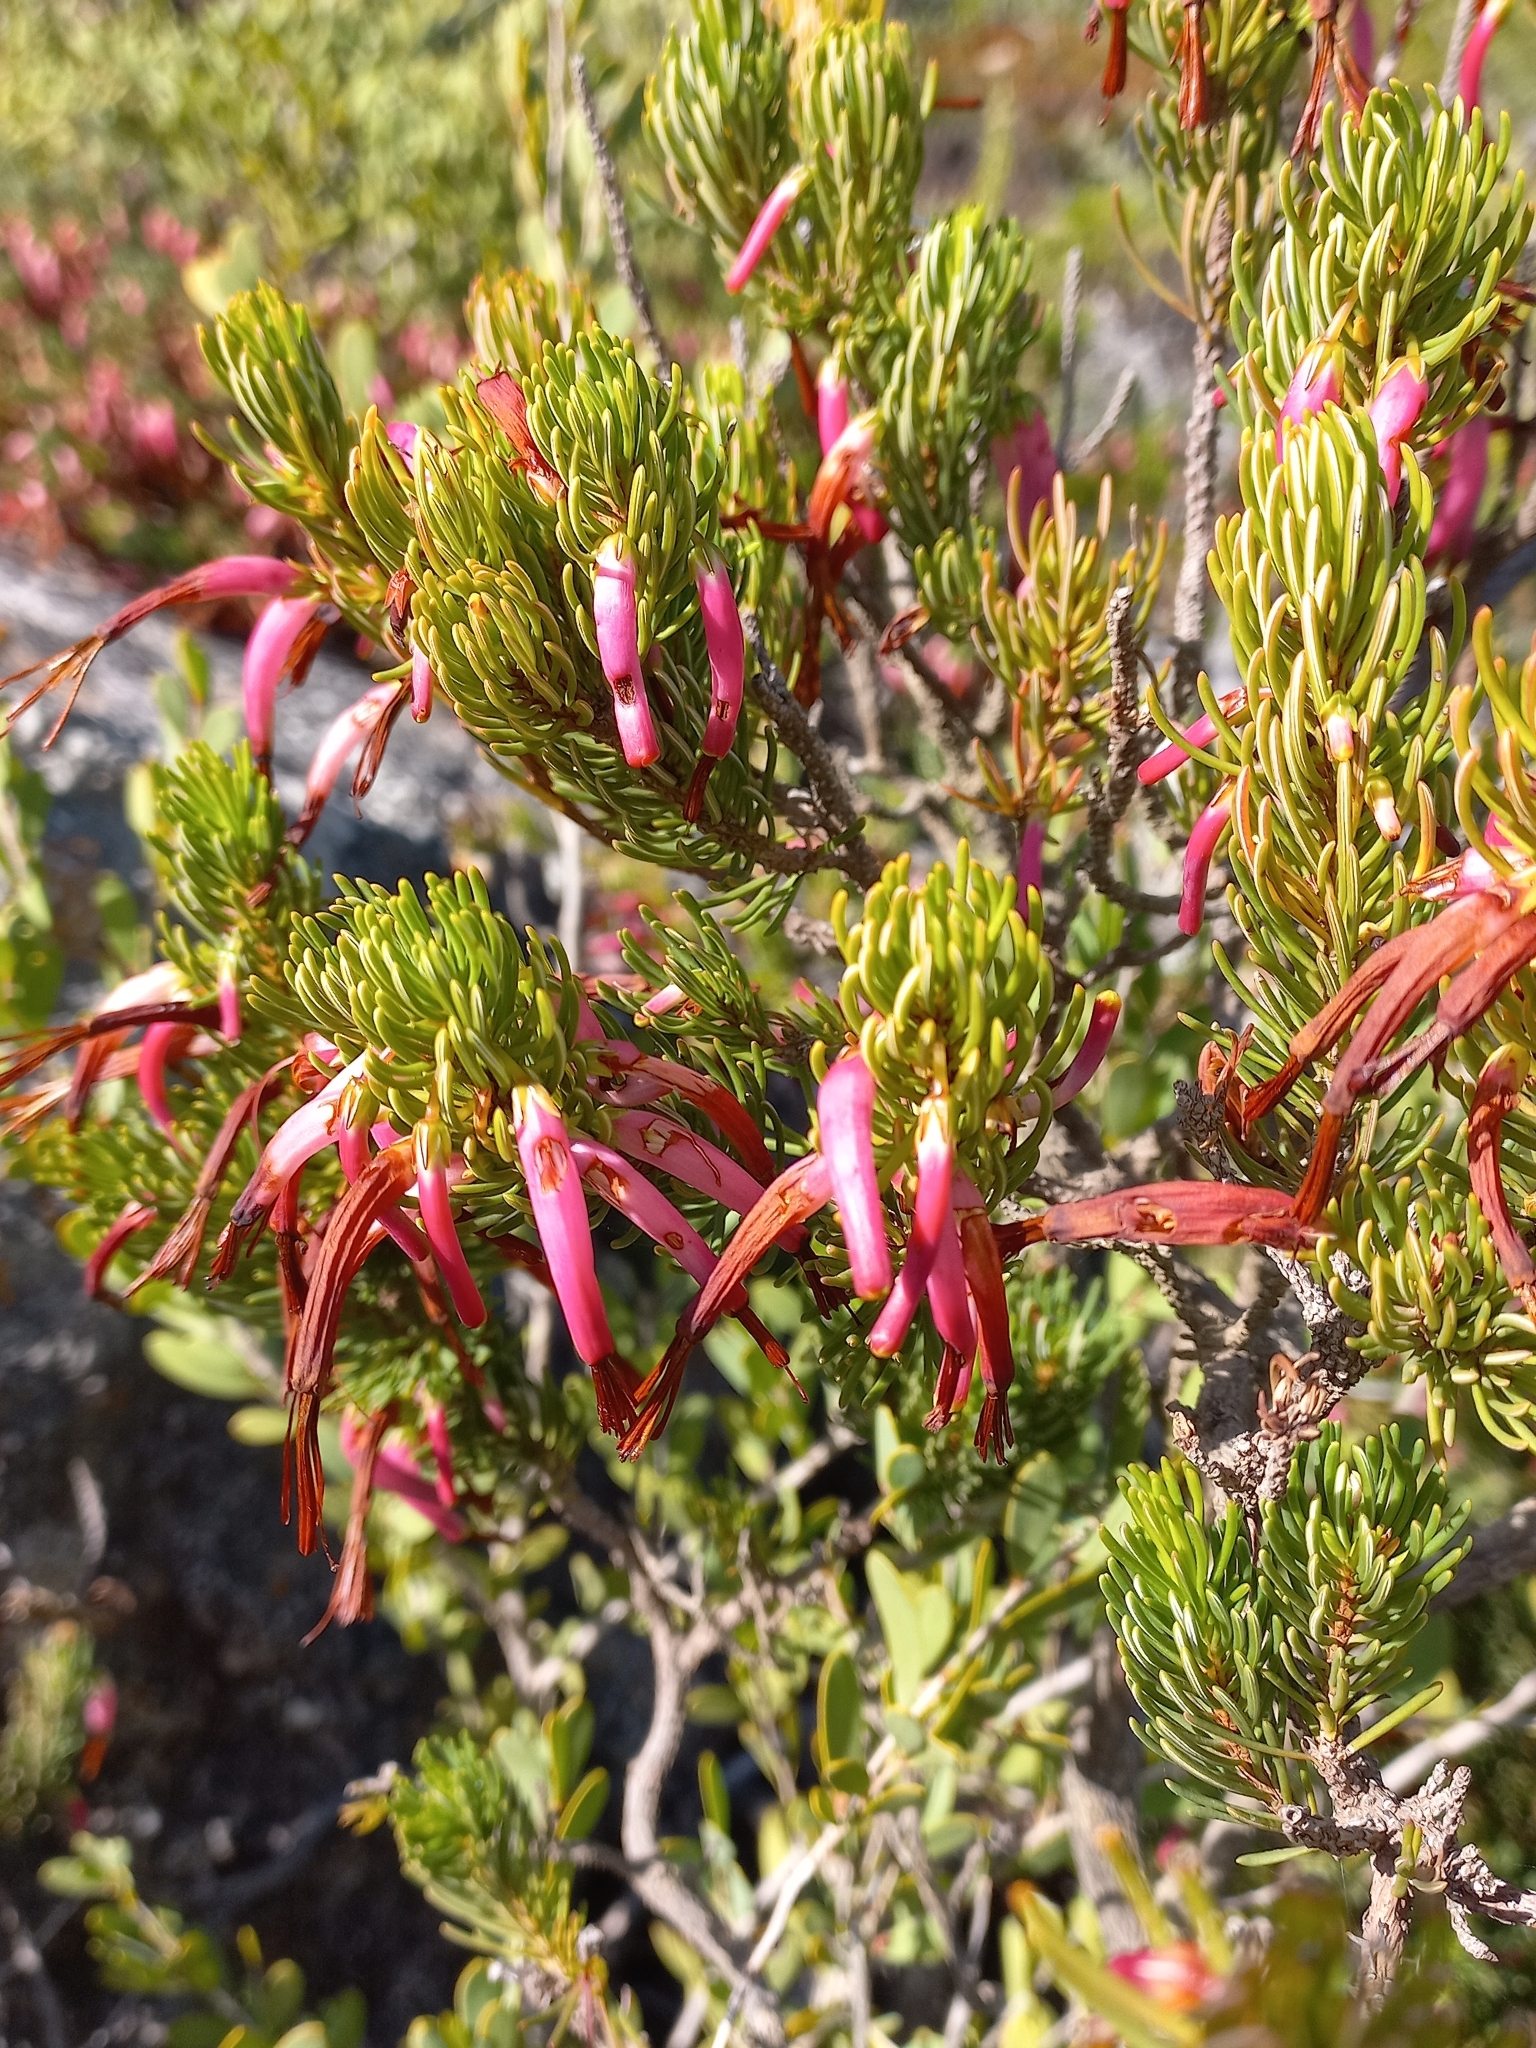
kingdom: Plantae
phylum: Tracheophyta
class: Magnoliopsida
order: Ericales
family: Ericaceae
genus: Erica
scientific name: Erica plukenetii
